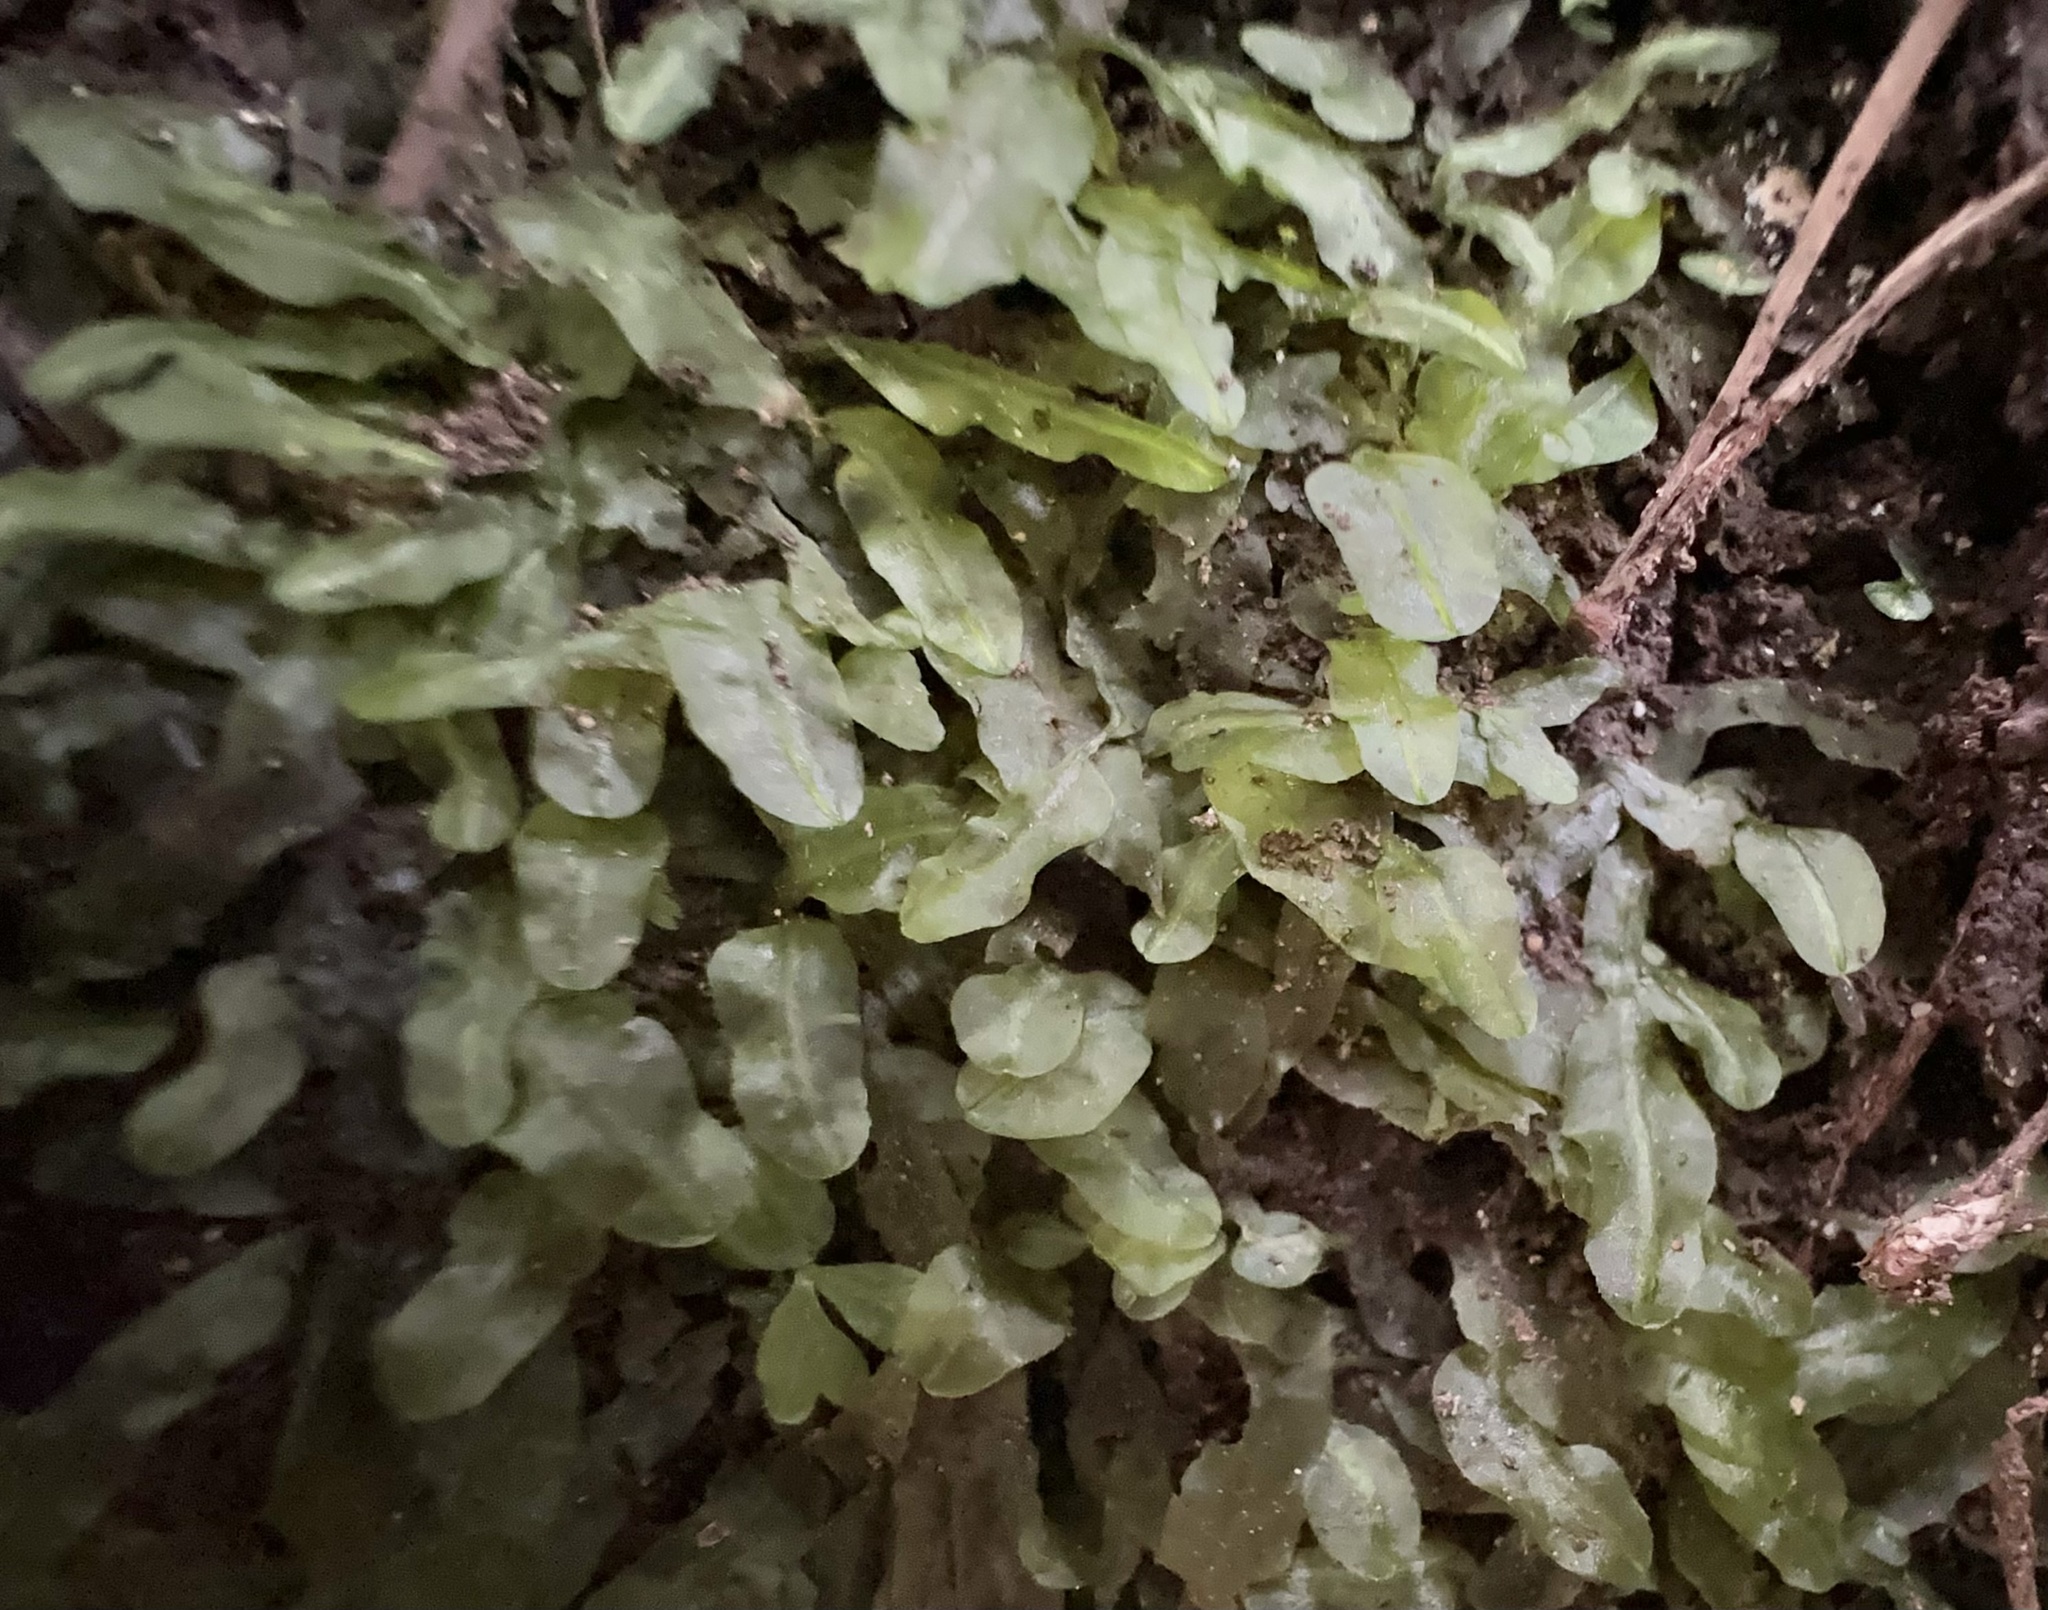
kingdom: Plantae
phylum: Marchantiophyta
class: Jungermanniopsida
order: Pallaviciniales
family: Pallaviciniaceae
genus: Symphyogyna
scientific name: Symphyogyna subsimplex
